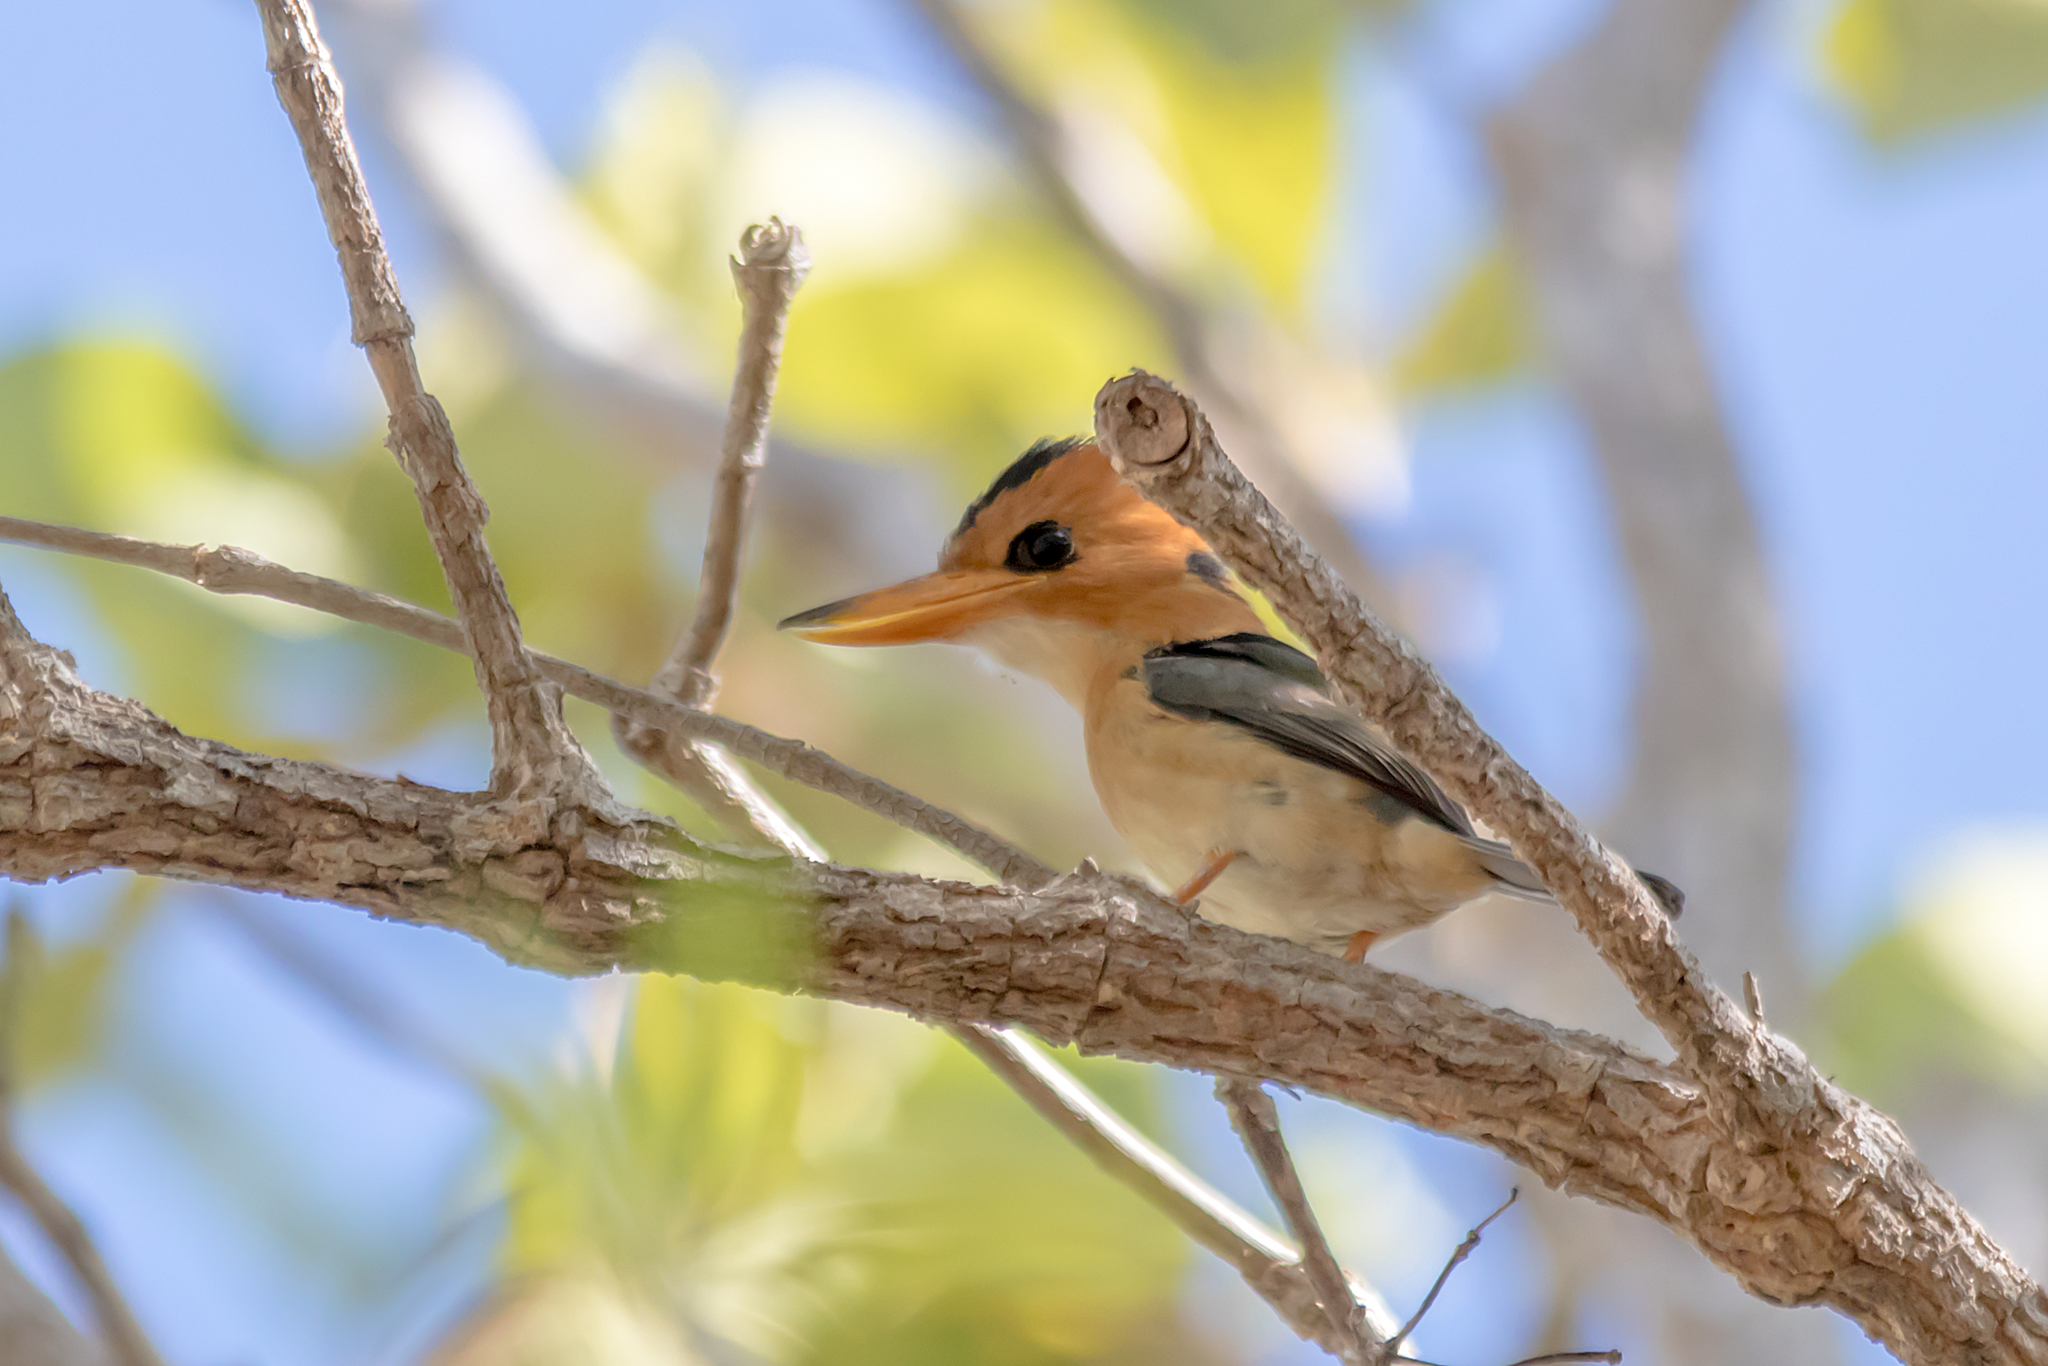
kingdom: Animalia
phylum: Chordata
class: Aves
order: Coraciiformes
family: Alcedinidae
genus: Syma
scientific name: Syma torotoro
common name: Yellow-billed kingfisher
